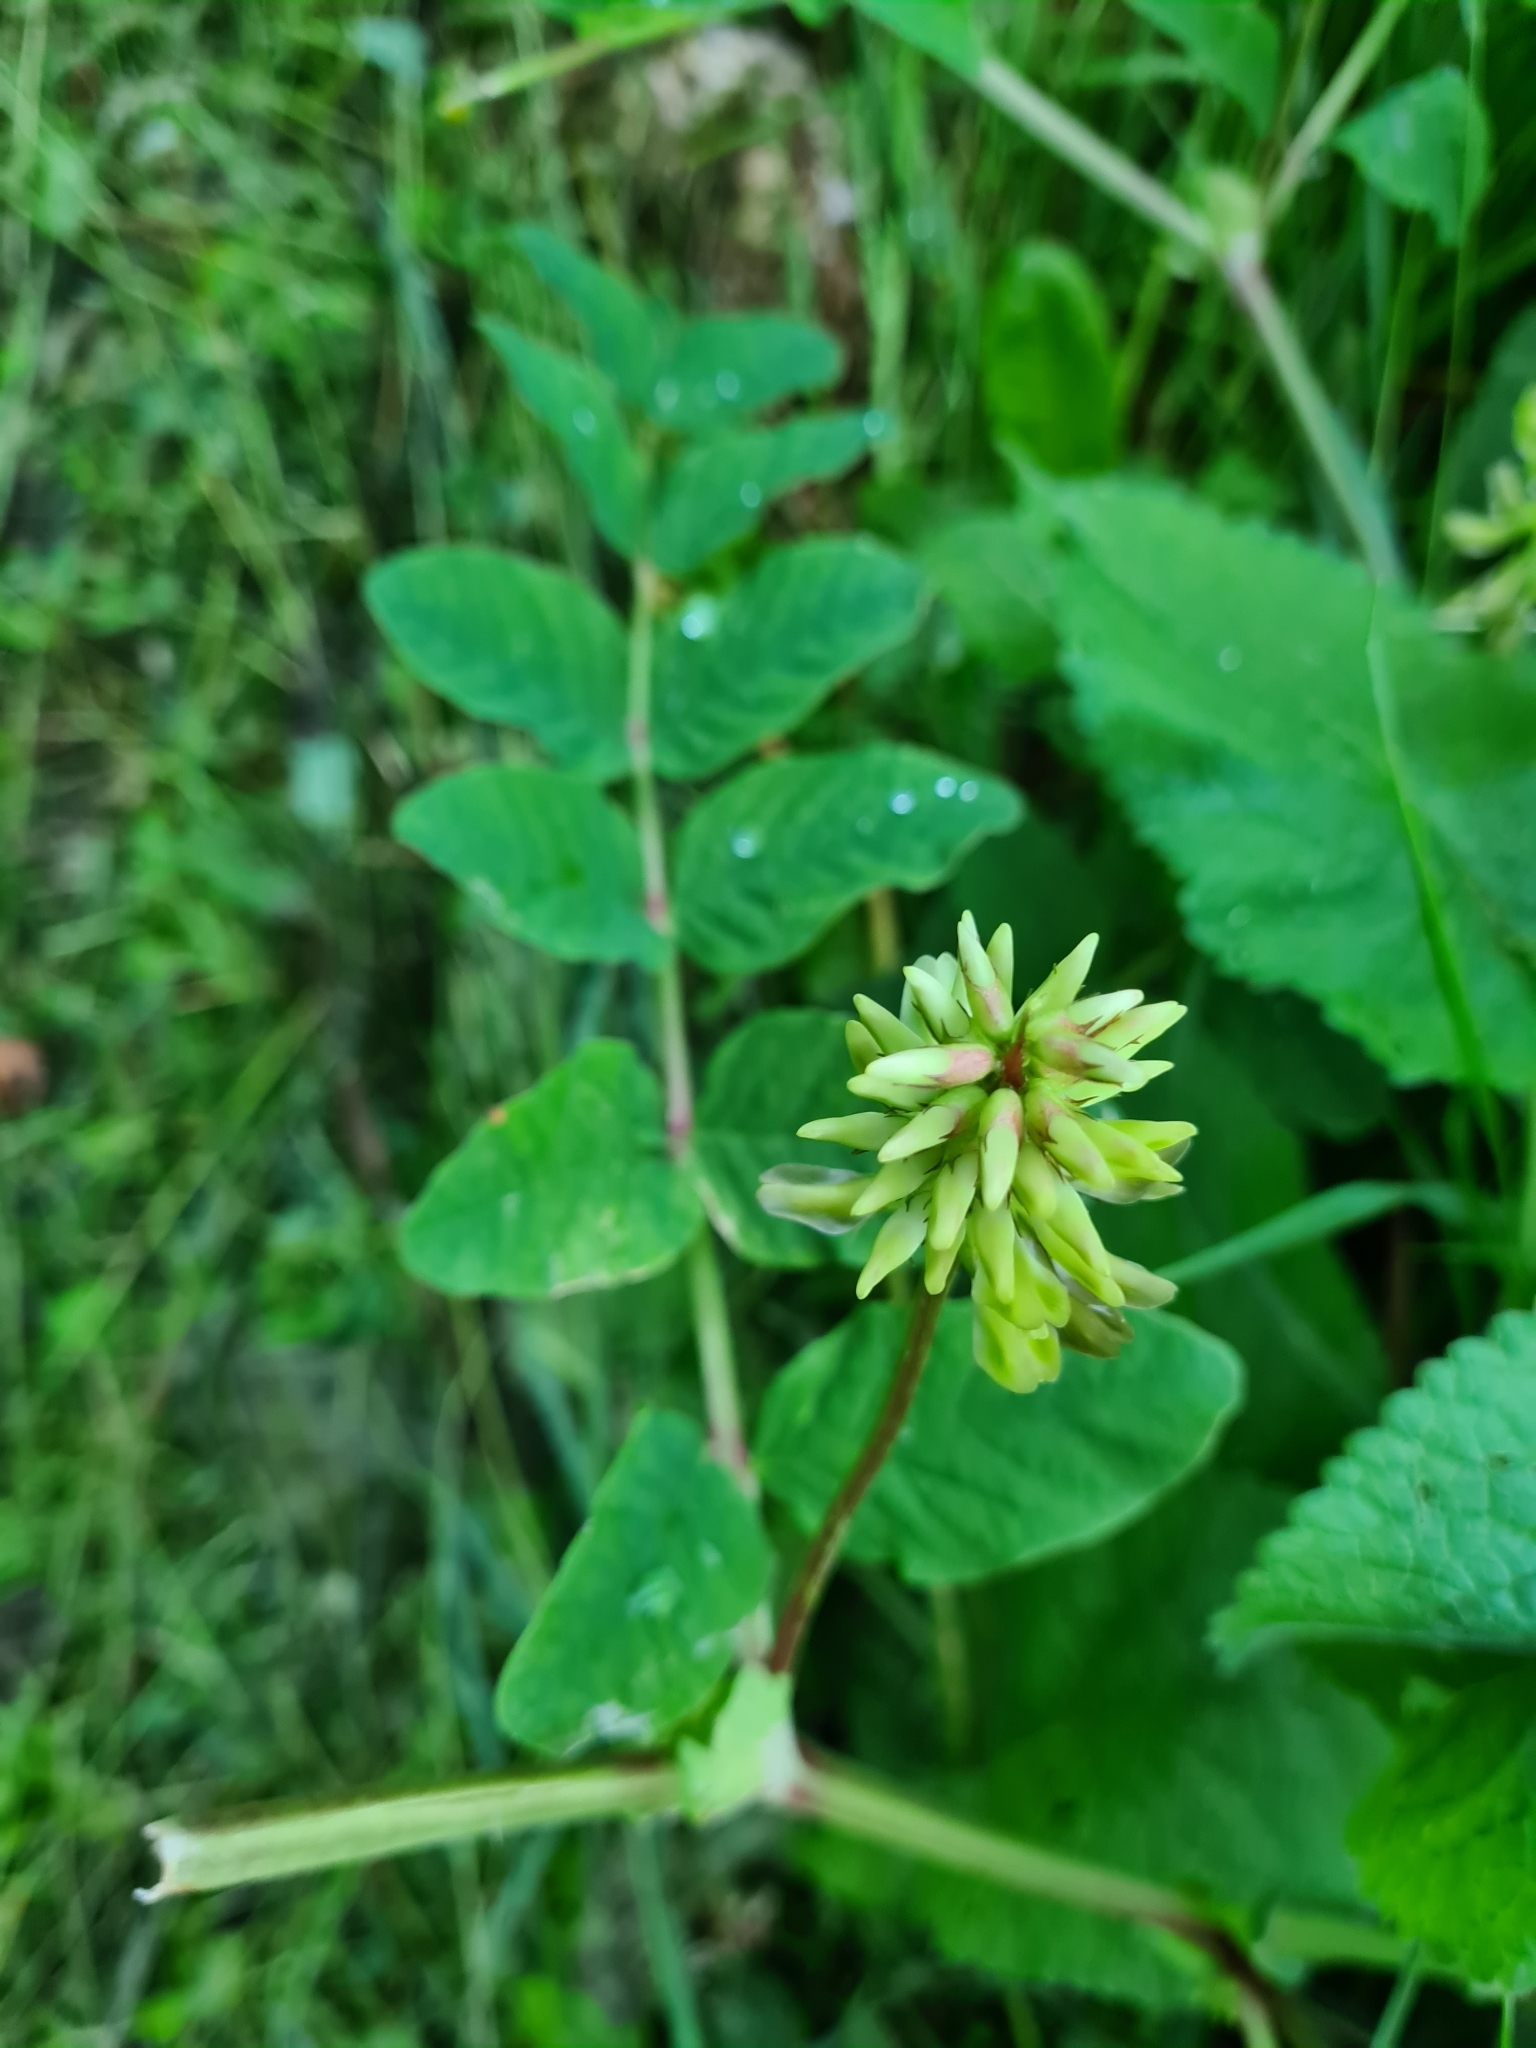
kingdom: Plantae
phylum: Tracheophyta
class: Magnoliopsida
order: Fabales
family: Fabaceae
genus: Astragalus
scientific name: Astragalus glycyphyllos
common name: Wild liquorice
